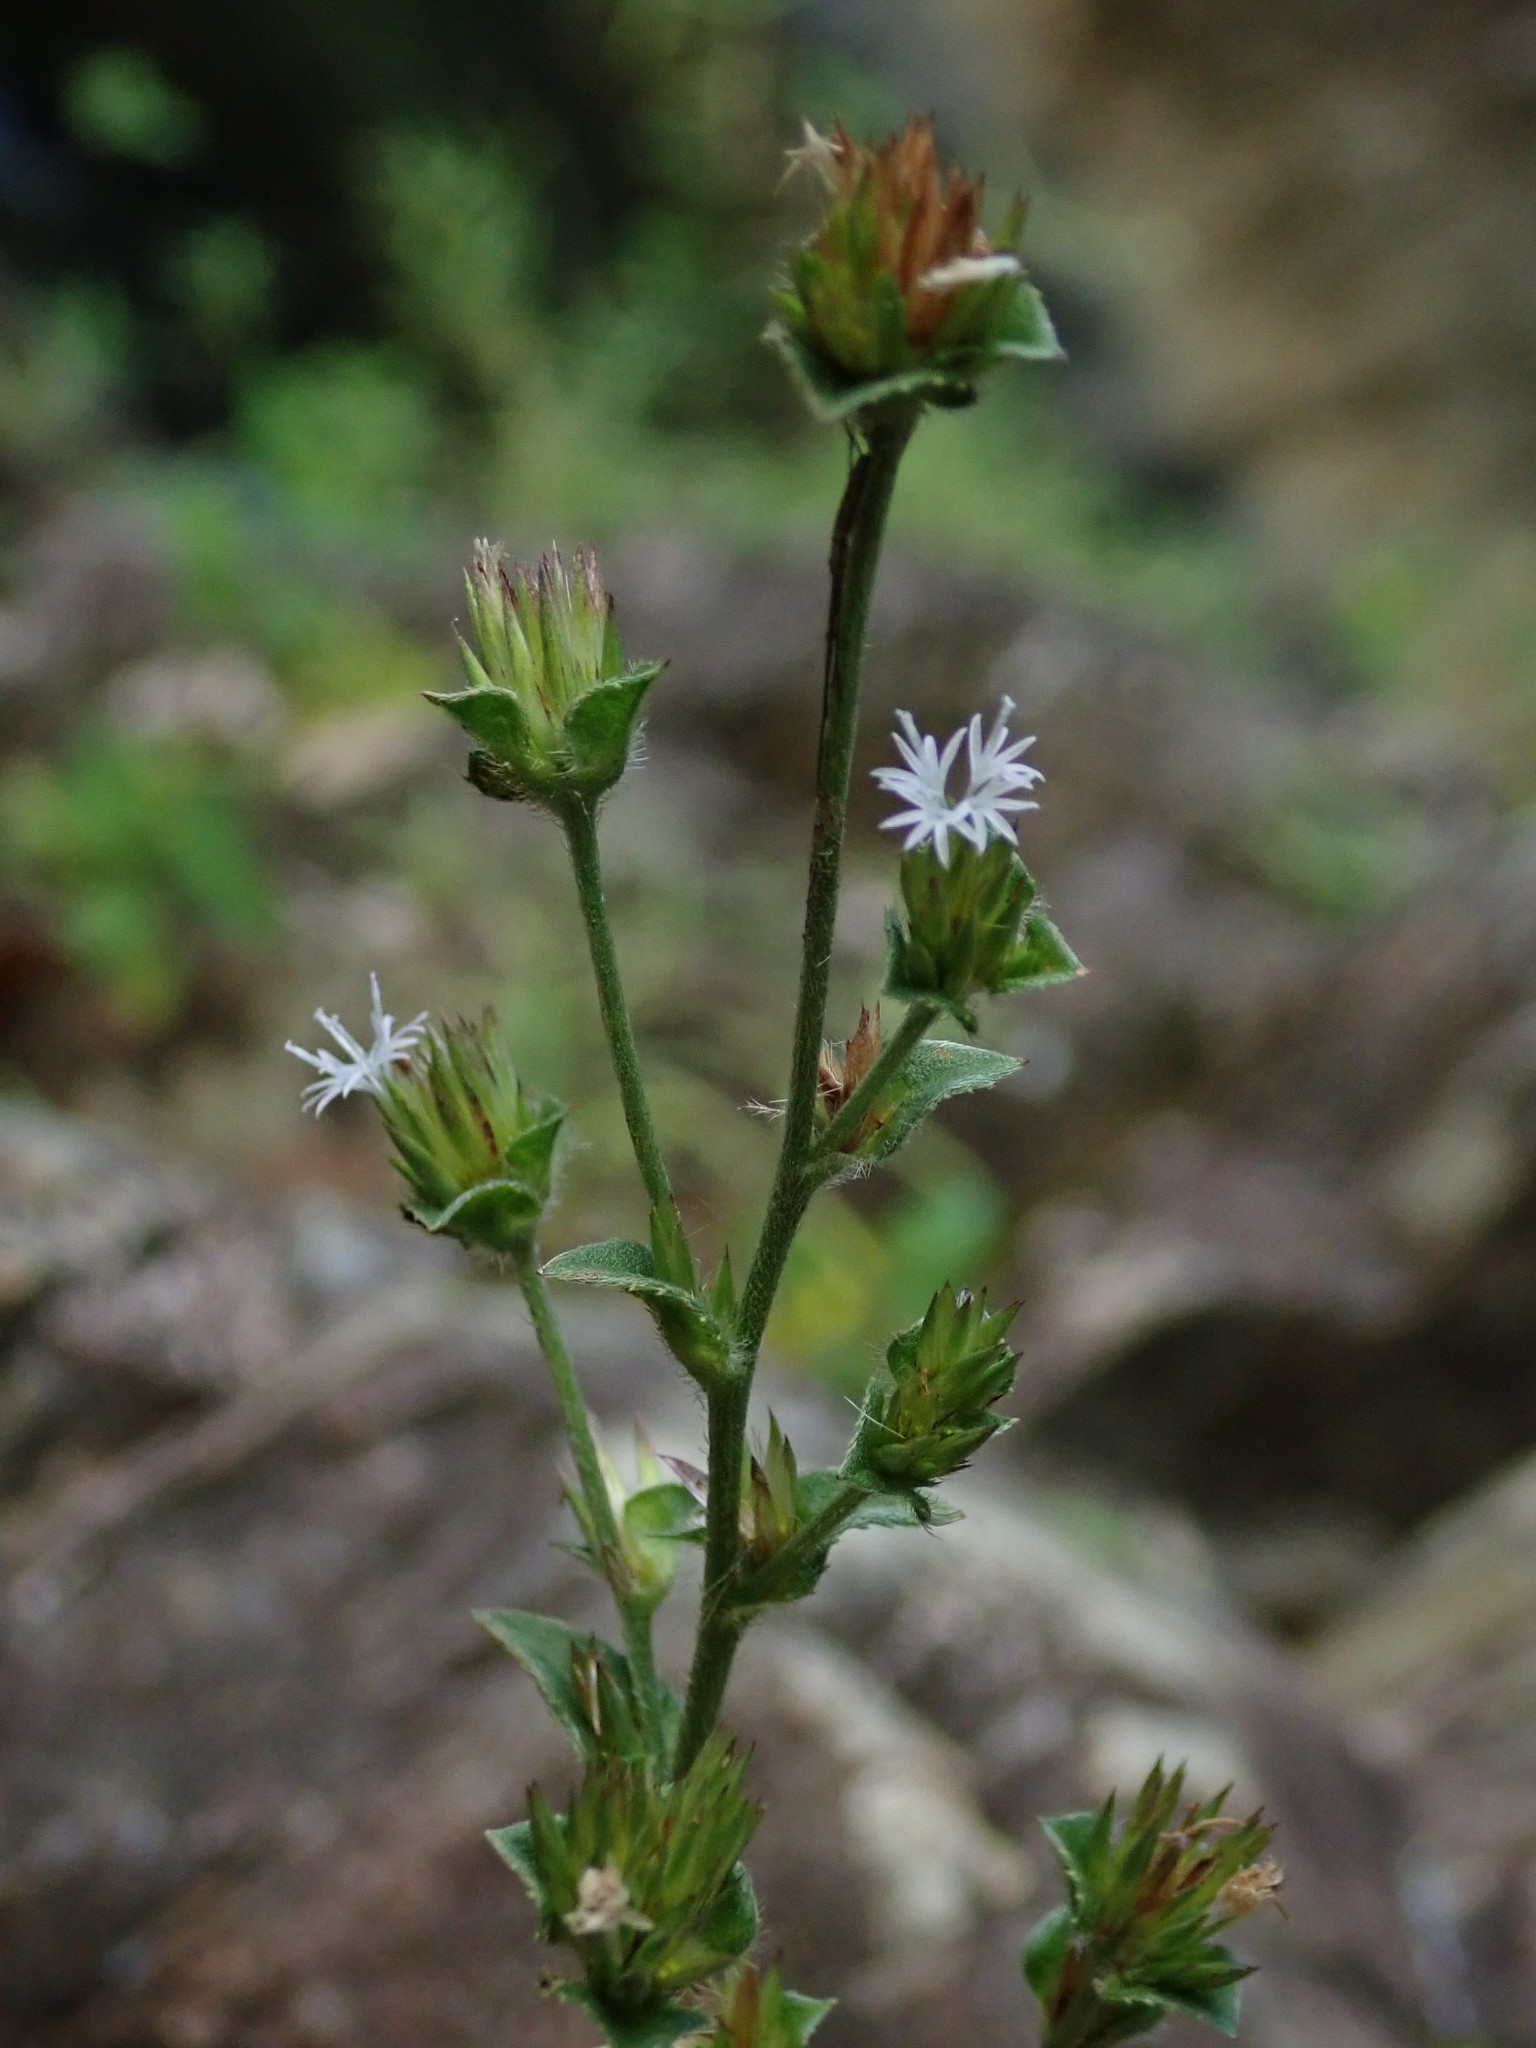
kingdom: Plantae
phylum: Tracheophyta
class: Magnoliopsida
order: Asterales
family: Asteraceae
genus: Elephantopus
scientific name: Elephantopus mollis
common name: Soft elephantsfoot
